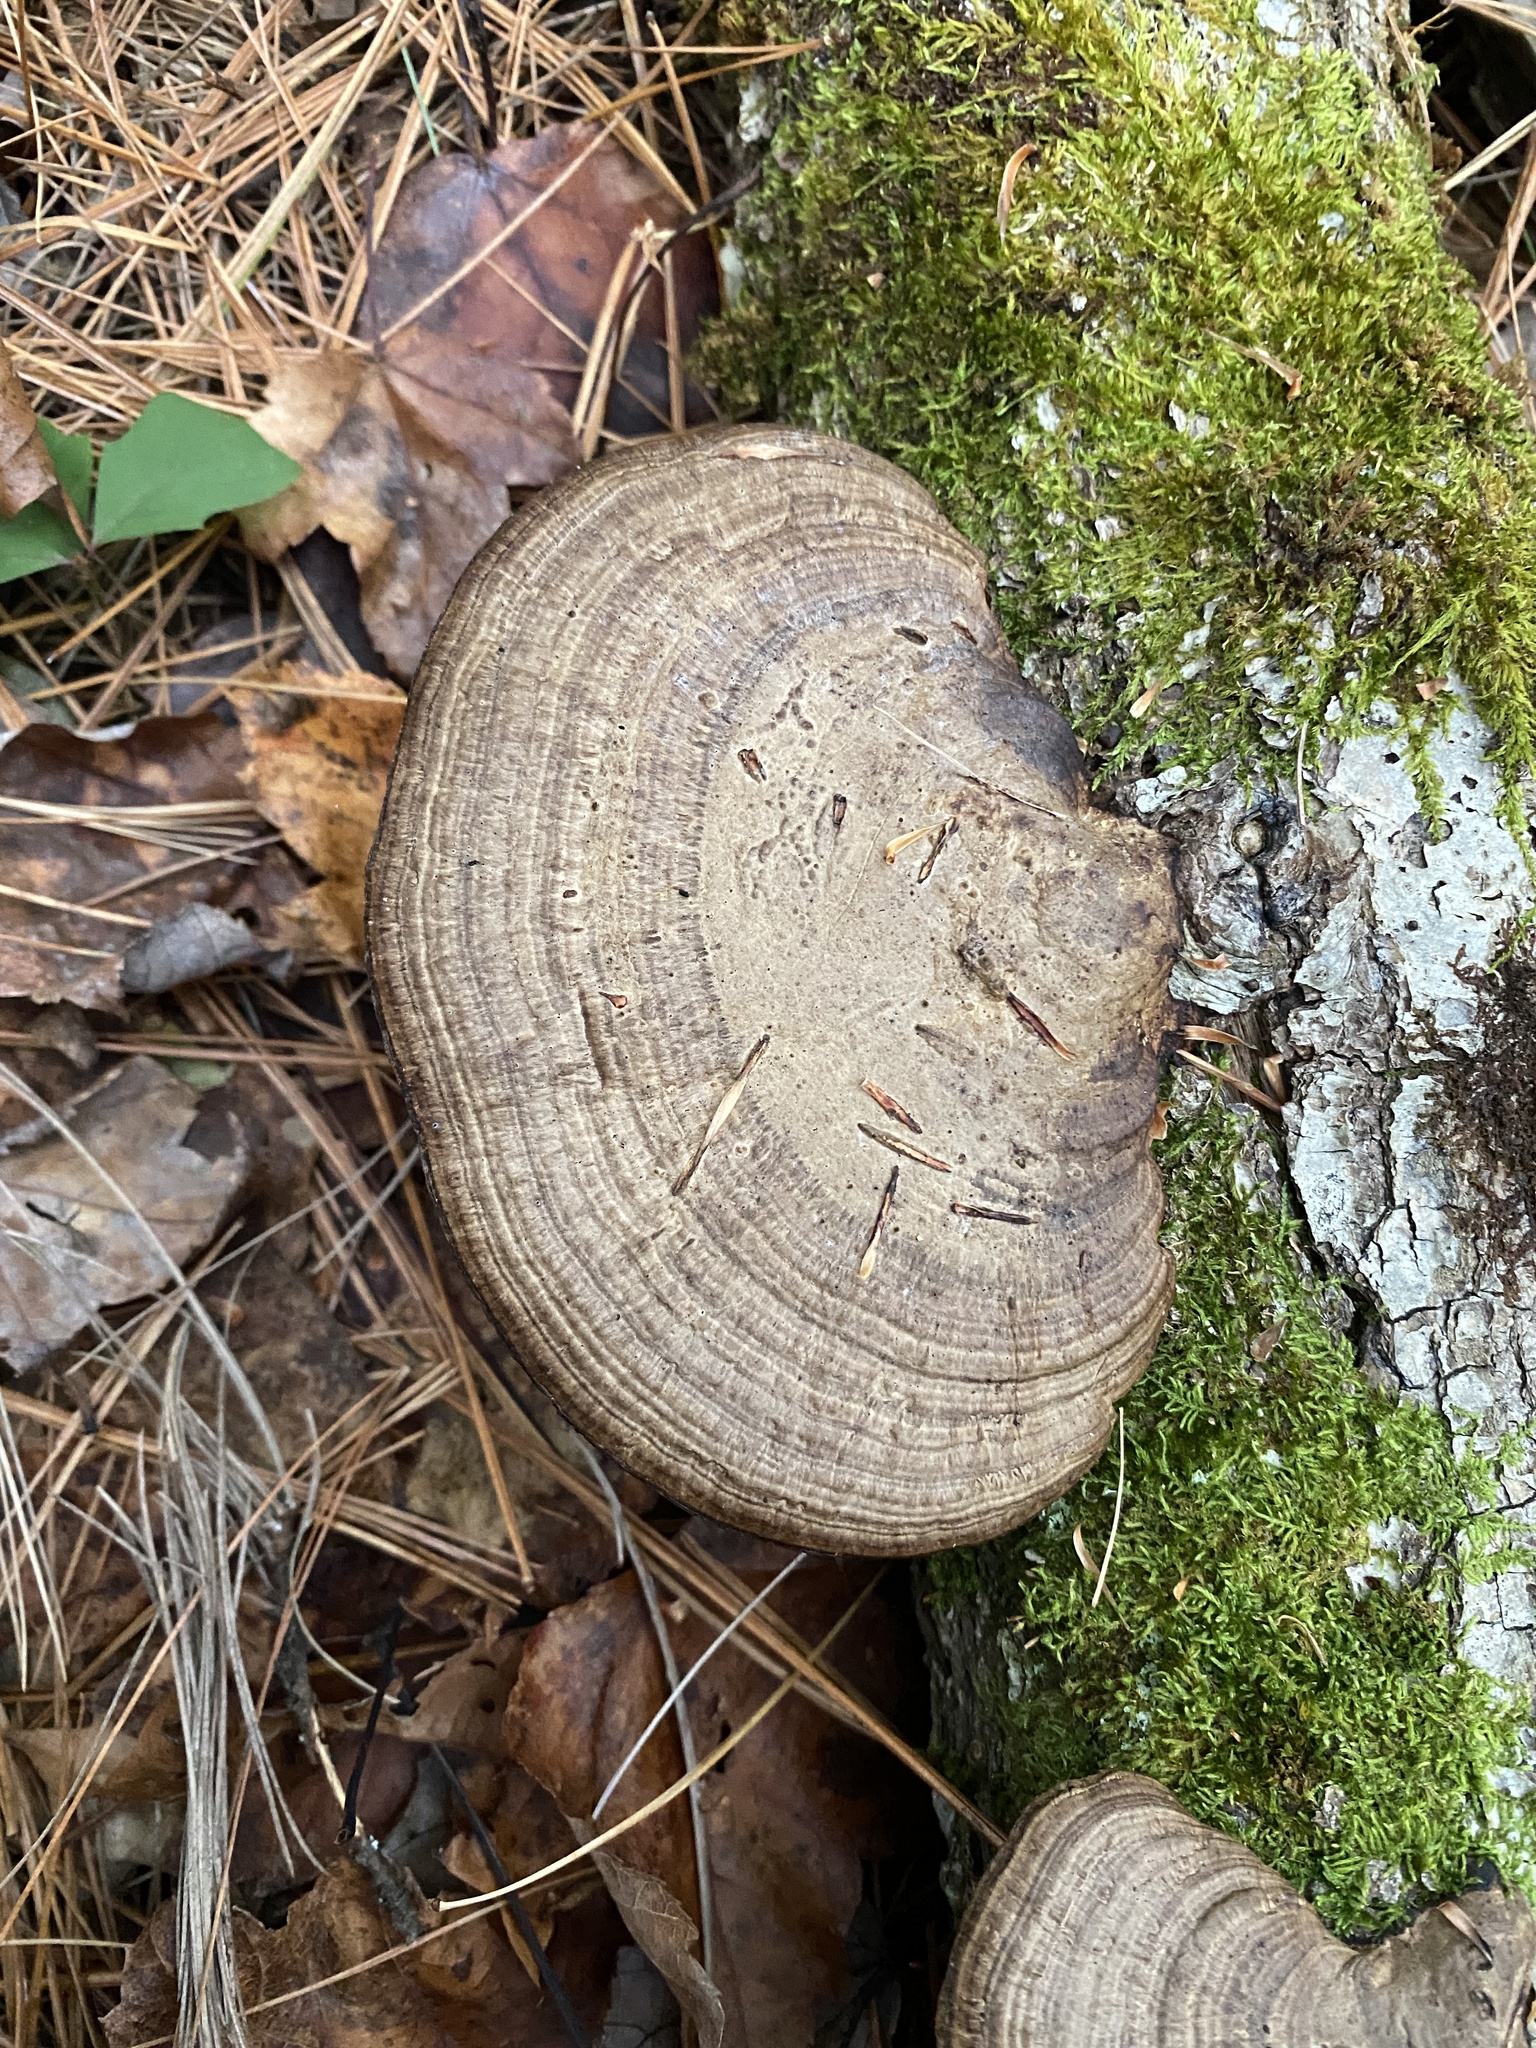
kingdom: Fungi
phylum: Basidiomycota
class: Agaricomycetes
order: Polyporales
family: Polyporaceae
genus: Daedaleopsis
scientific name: Daedaleopsis confragosa
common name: Blushing bracket
